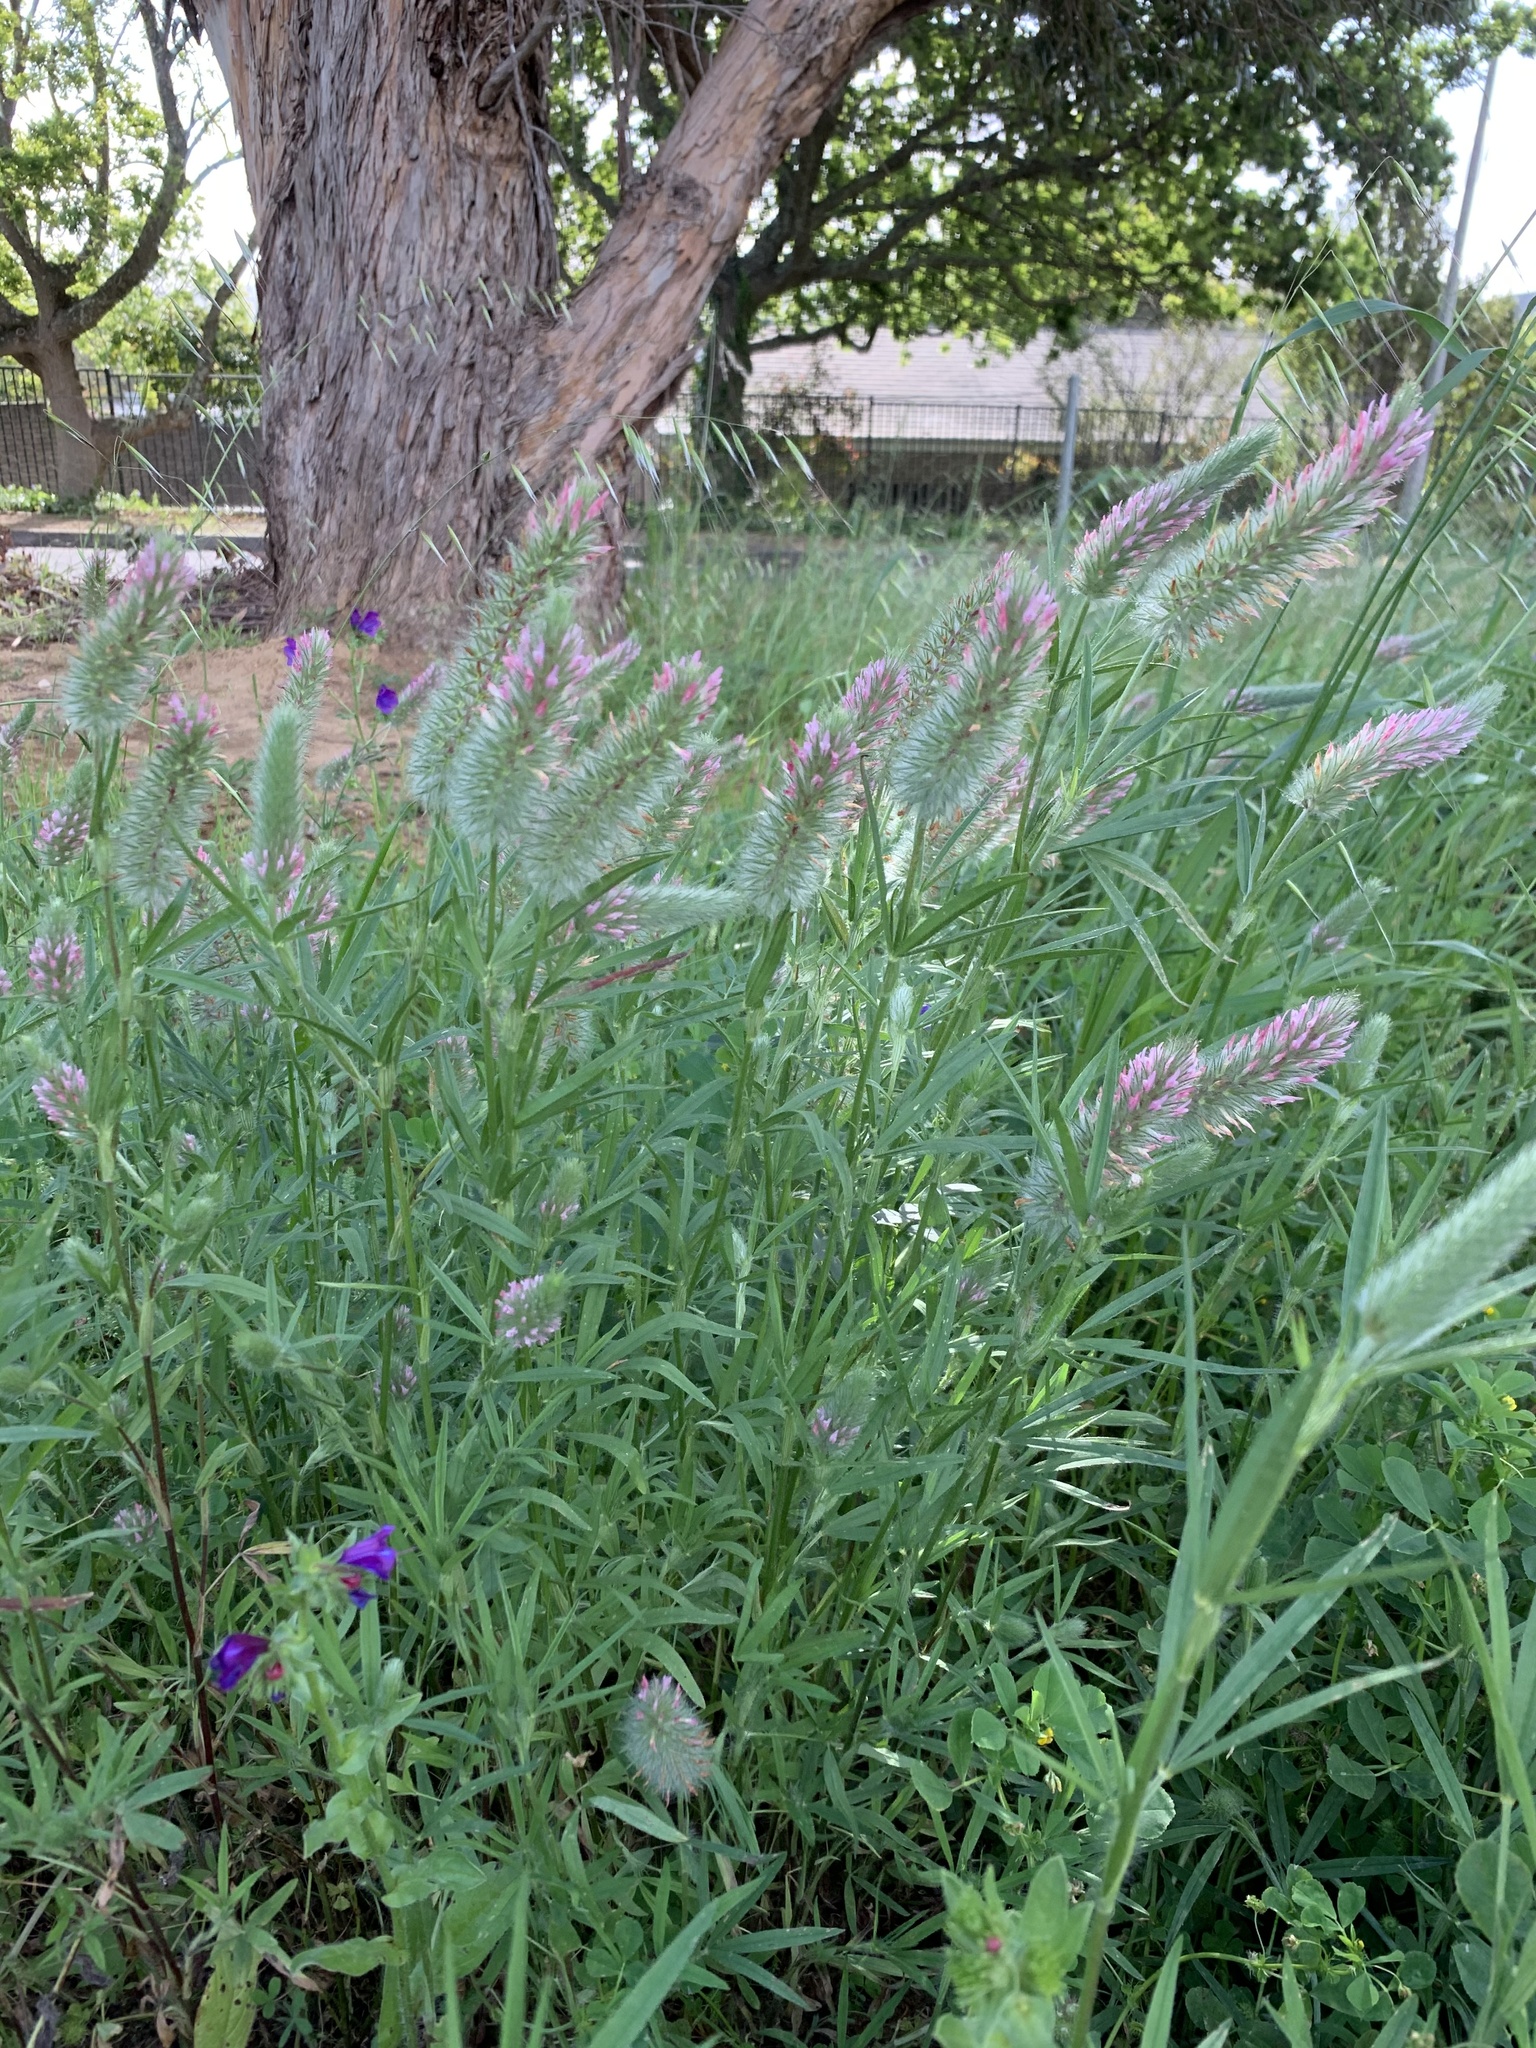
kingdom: Plantae
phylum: Tracheophyta
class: Magnoliopsida
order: Fabales
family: Fabaceae
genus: Trifolium
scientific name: Trifolium angustifolium
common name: Narrow clover
